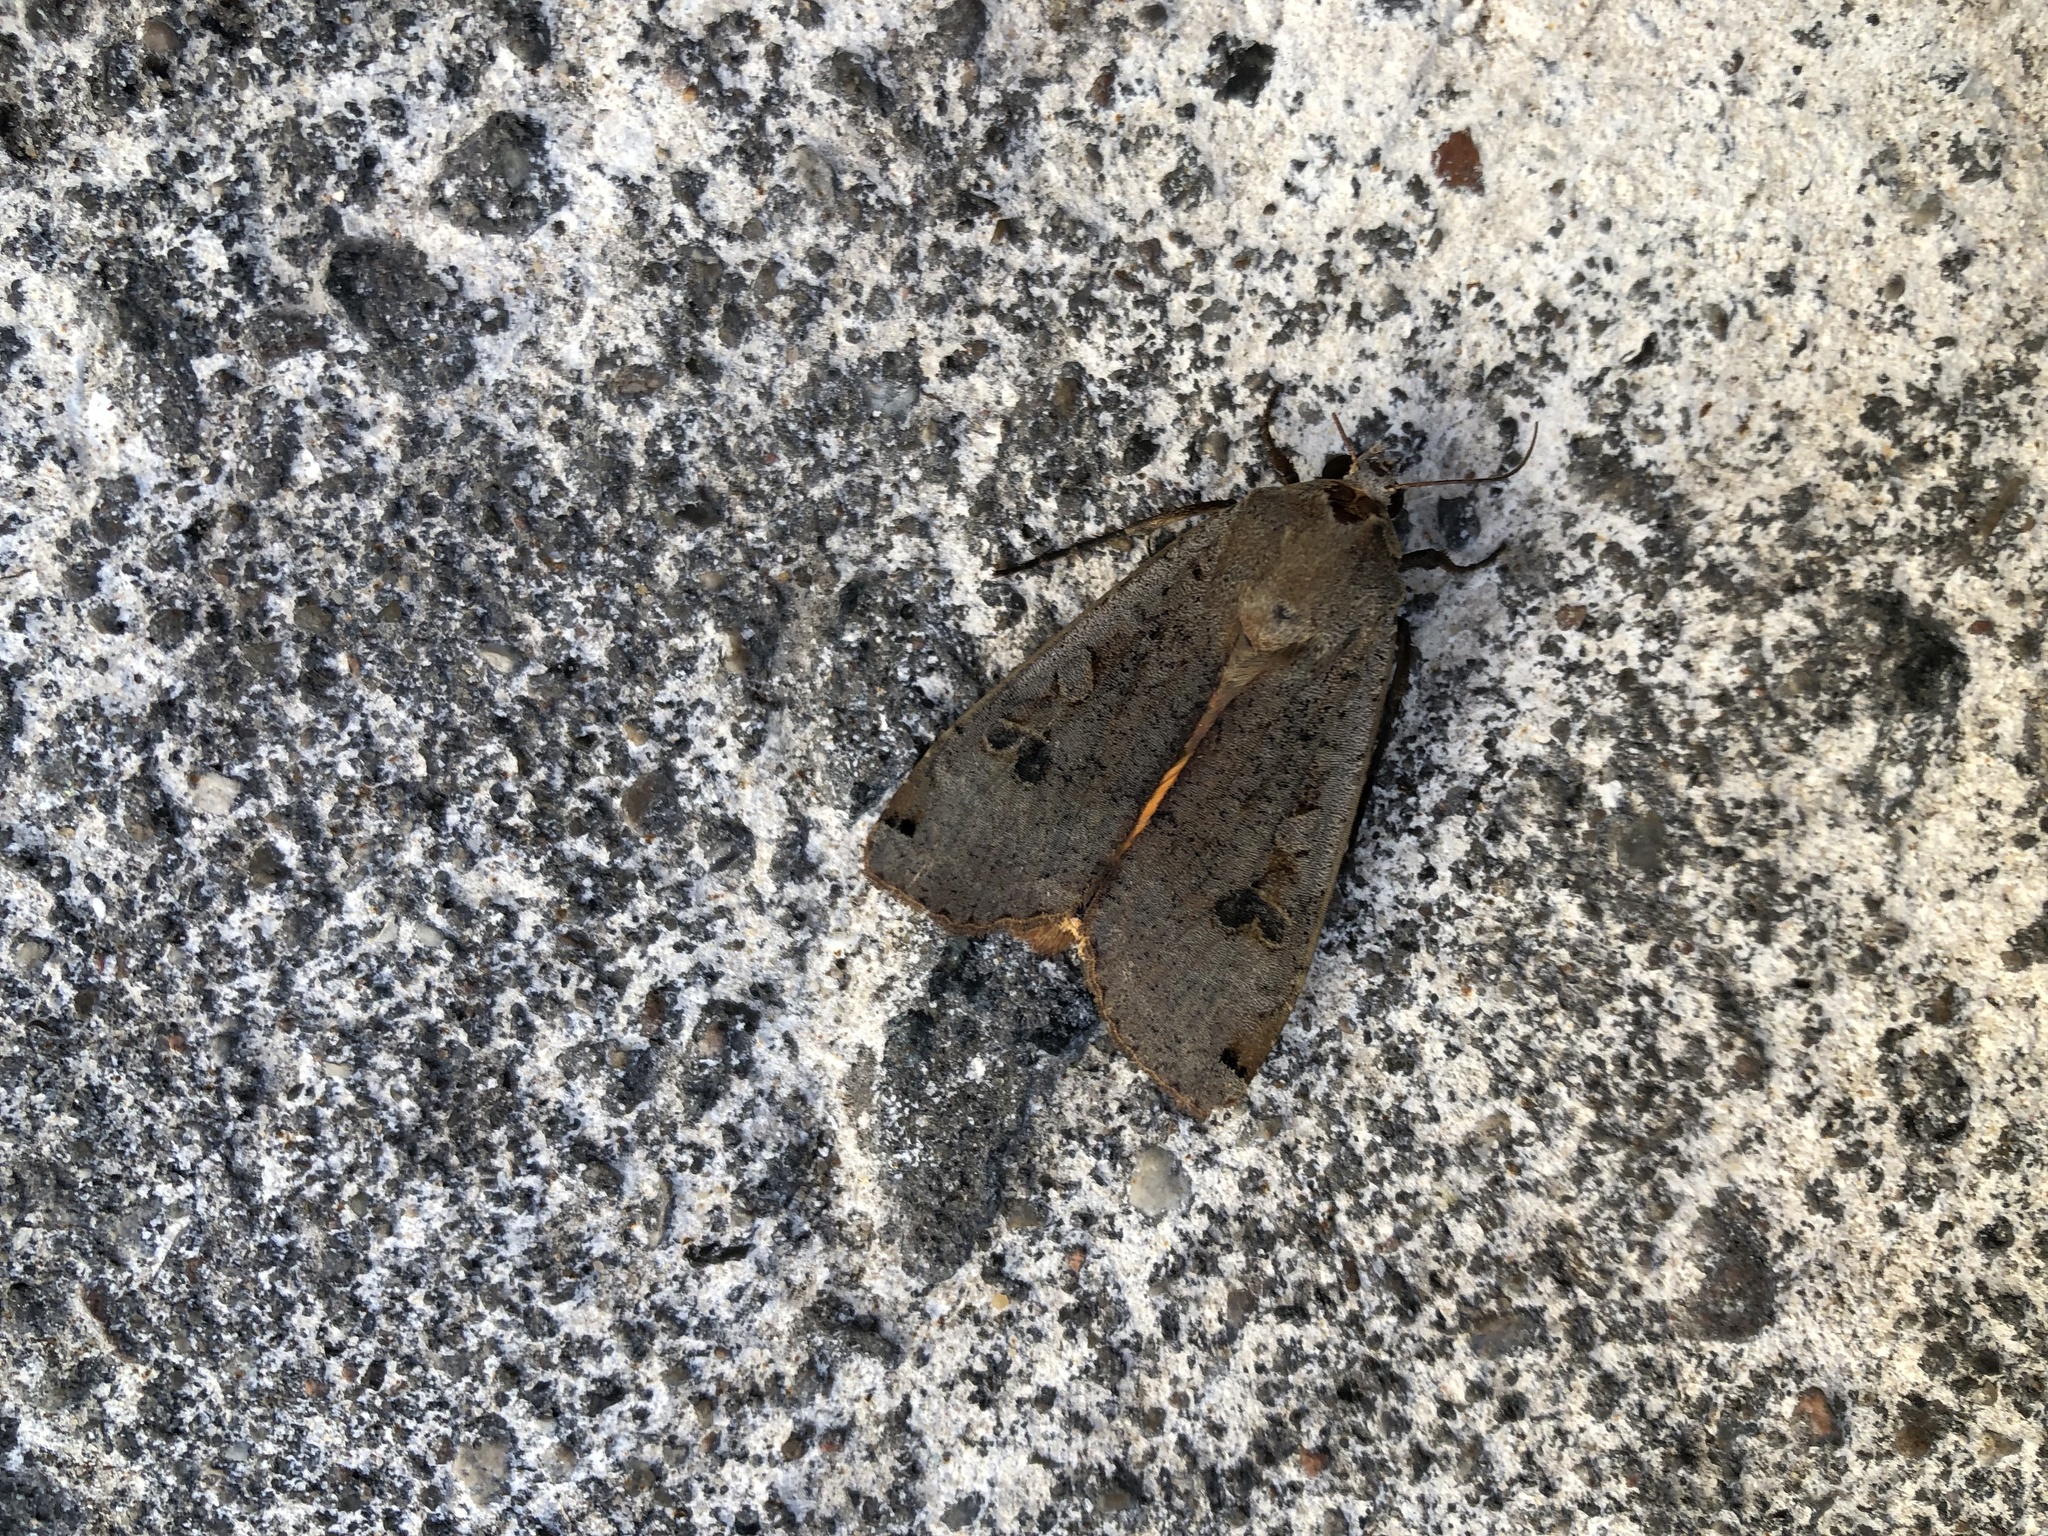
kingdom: Animalia
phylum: Arthropoda
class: Insecta
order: Lepidoptera
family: Noctuidae
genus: Noctua
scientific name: Noctua pronuba
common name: Large yellow underwing
